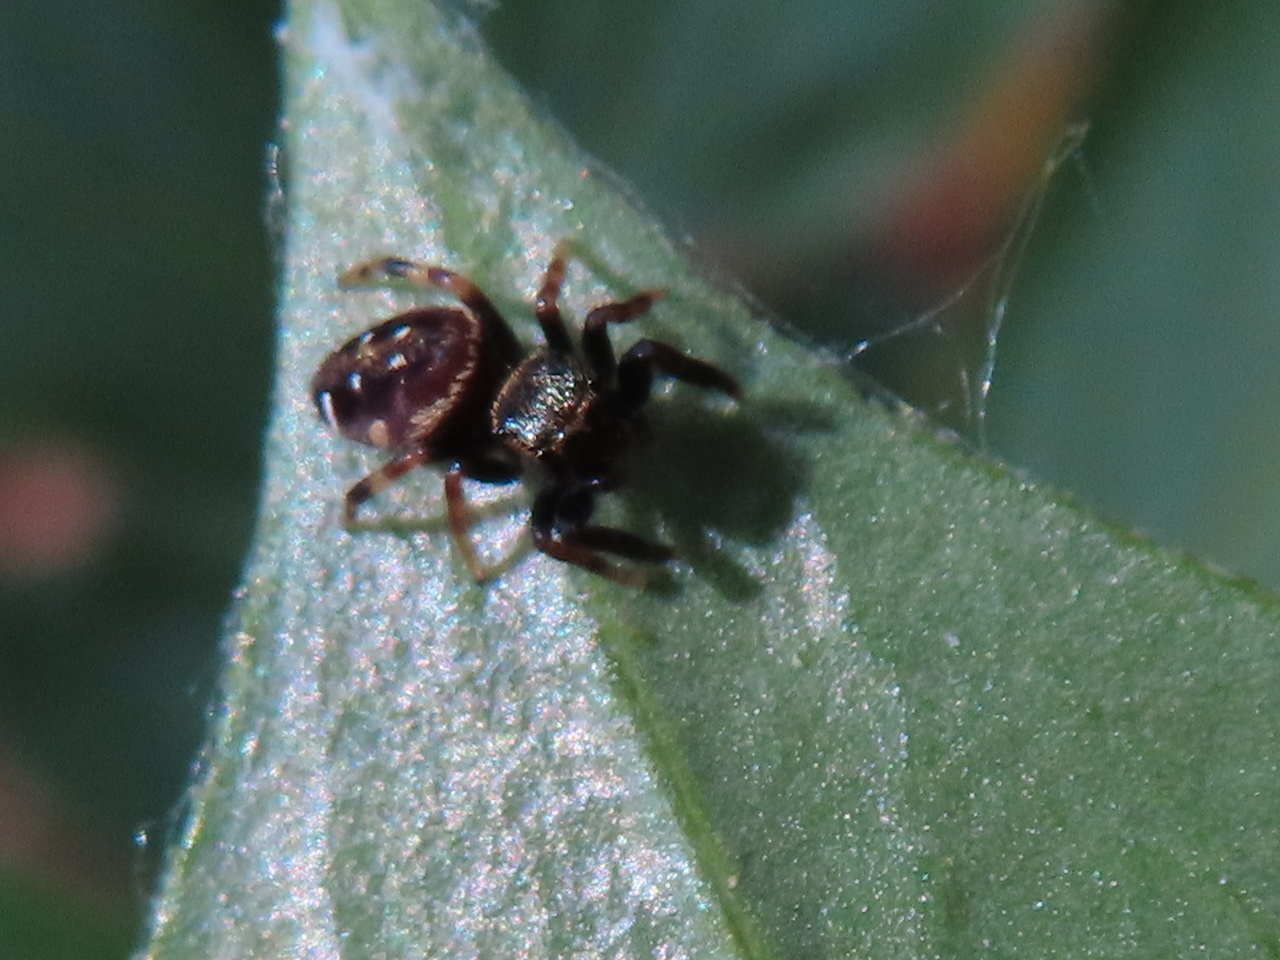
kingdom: Animalia
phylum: Arthropoda
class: Arachnida
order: Araneae
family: Salticidae
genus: Paraphidippus
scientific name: Paraphidippus aurantius
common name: Jumping spiders
